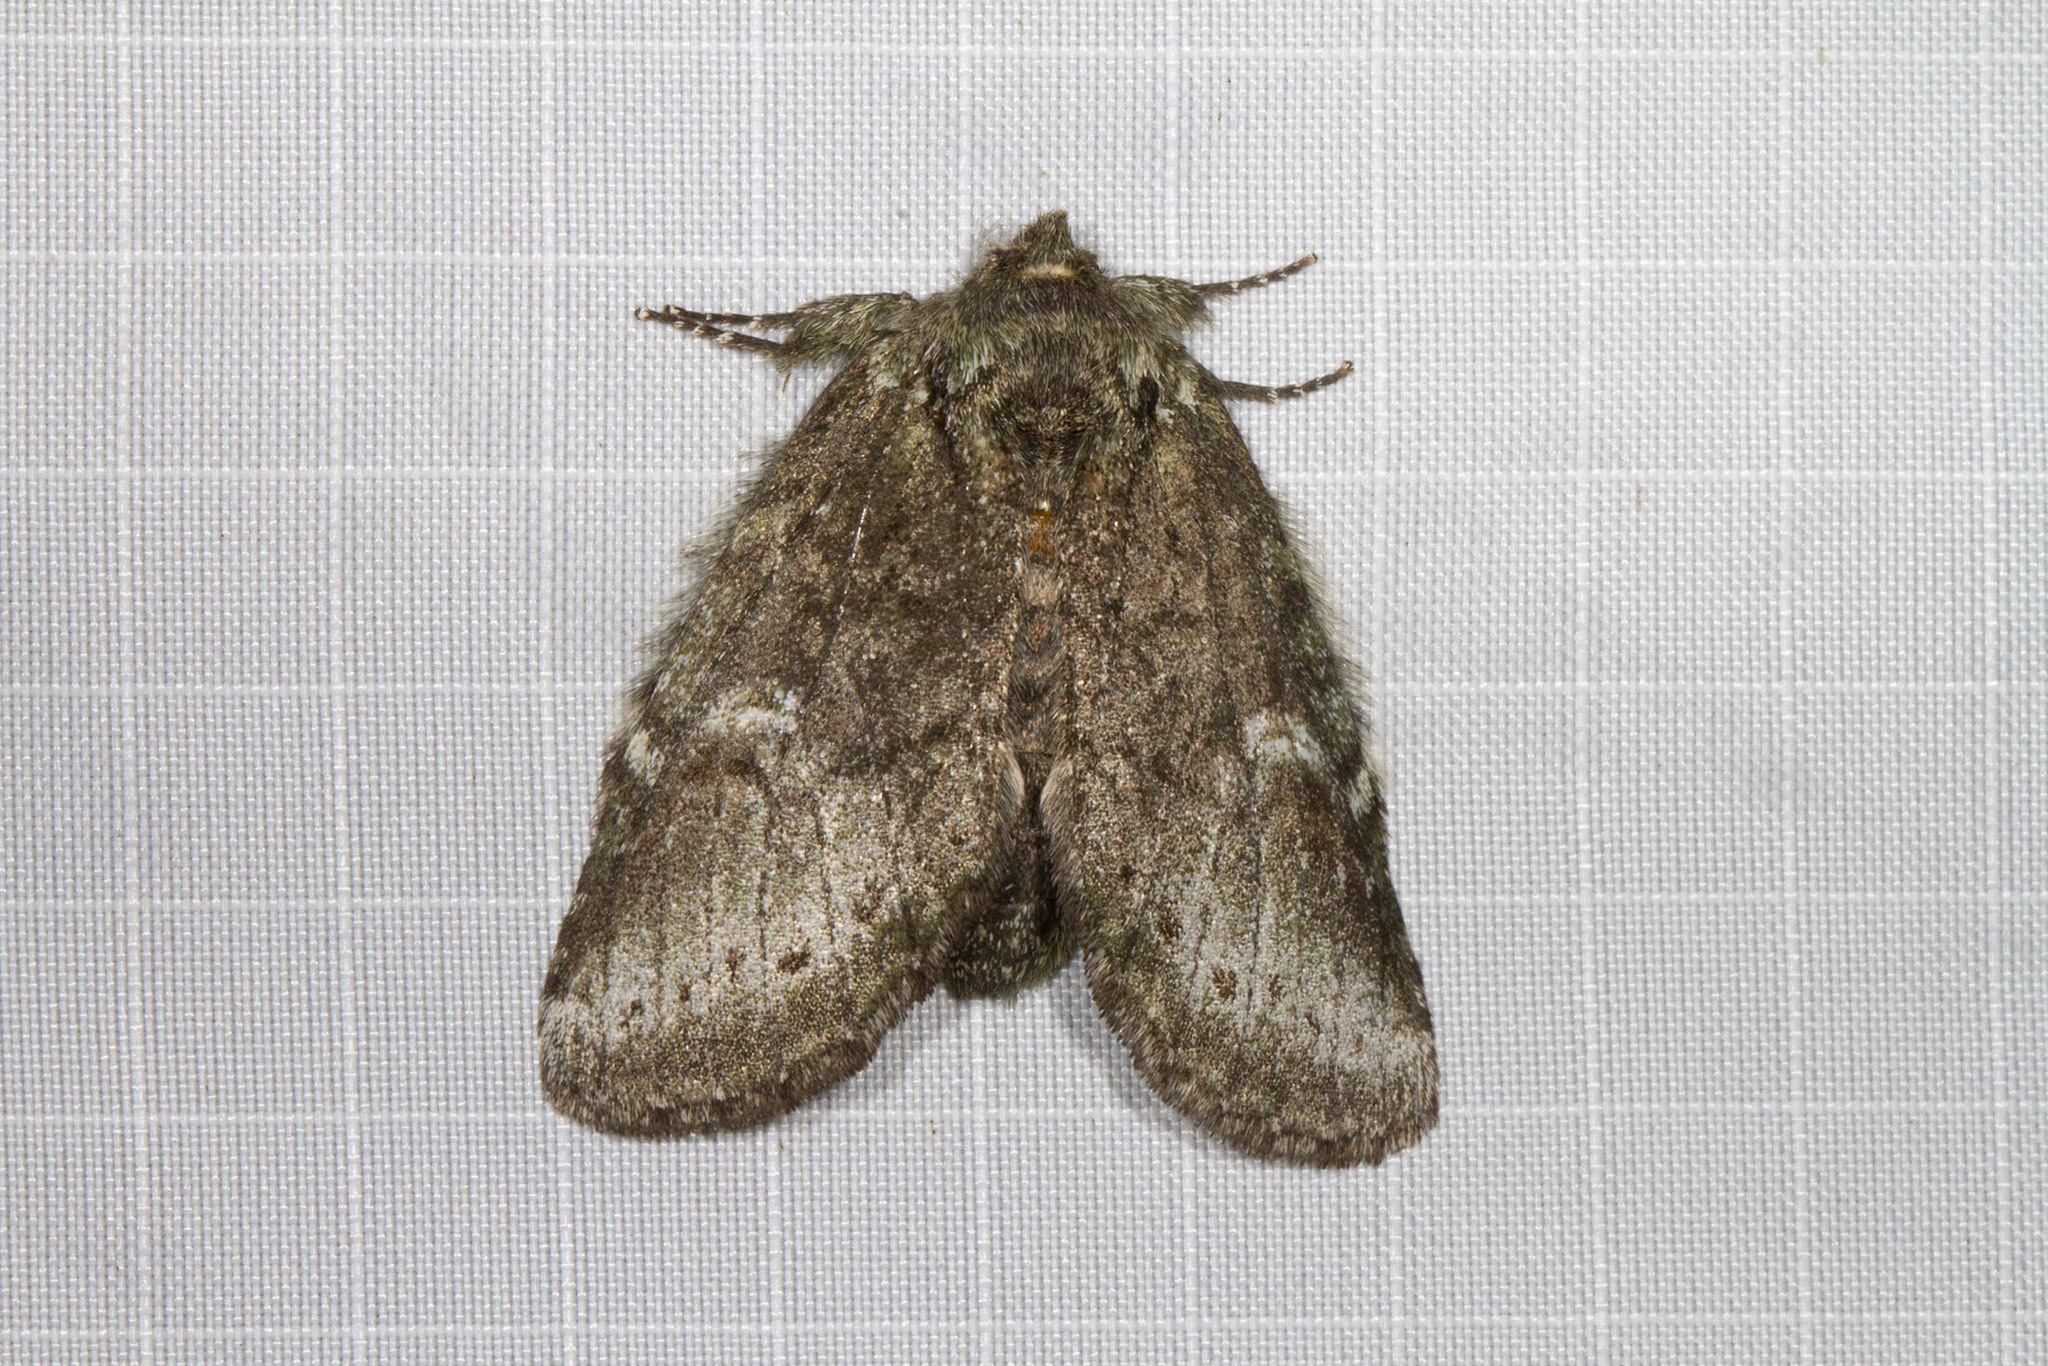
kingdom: Animalia
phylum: Arthropoda
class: Insecta
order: Lepidoptera
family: Notodontidae
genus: Disphragis
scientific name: Disphragis Cecrita guttivitta
